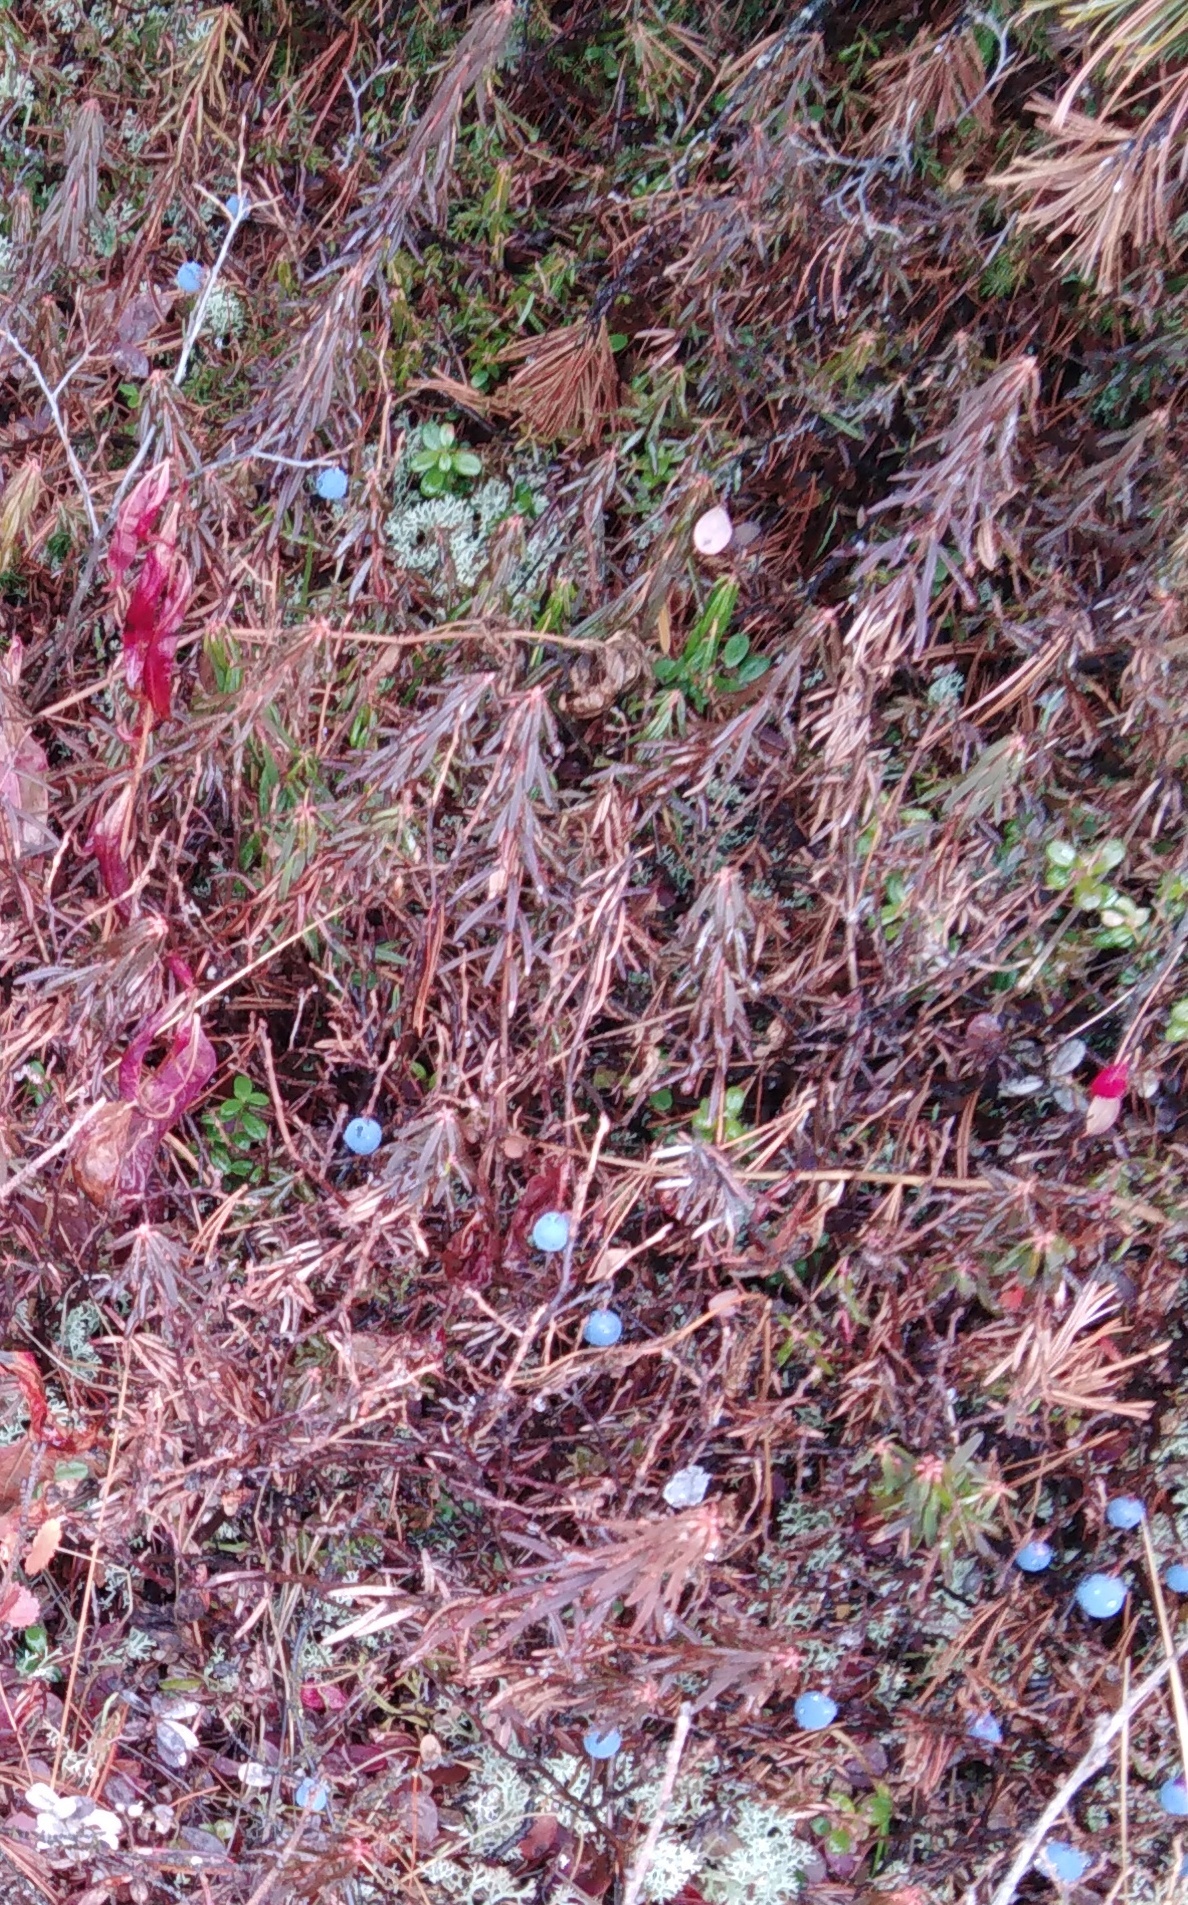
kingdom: Plantae
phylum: Tracheophyta
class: Magnoliopsida
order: Ericales
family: Ericaceae
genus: Rhododendron
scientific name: Rhododendron tomentosum
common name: Marsh labrador tea
